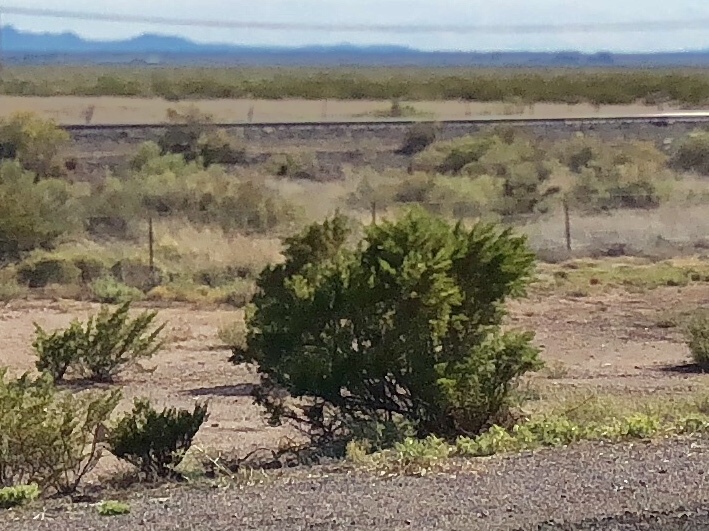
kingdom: Plantae
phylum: Tracheophyta
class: Magnoliopsida
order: Zygophyllales
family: Zygophyllaceae
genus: Larrea
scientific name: Larrea tridentata
